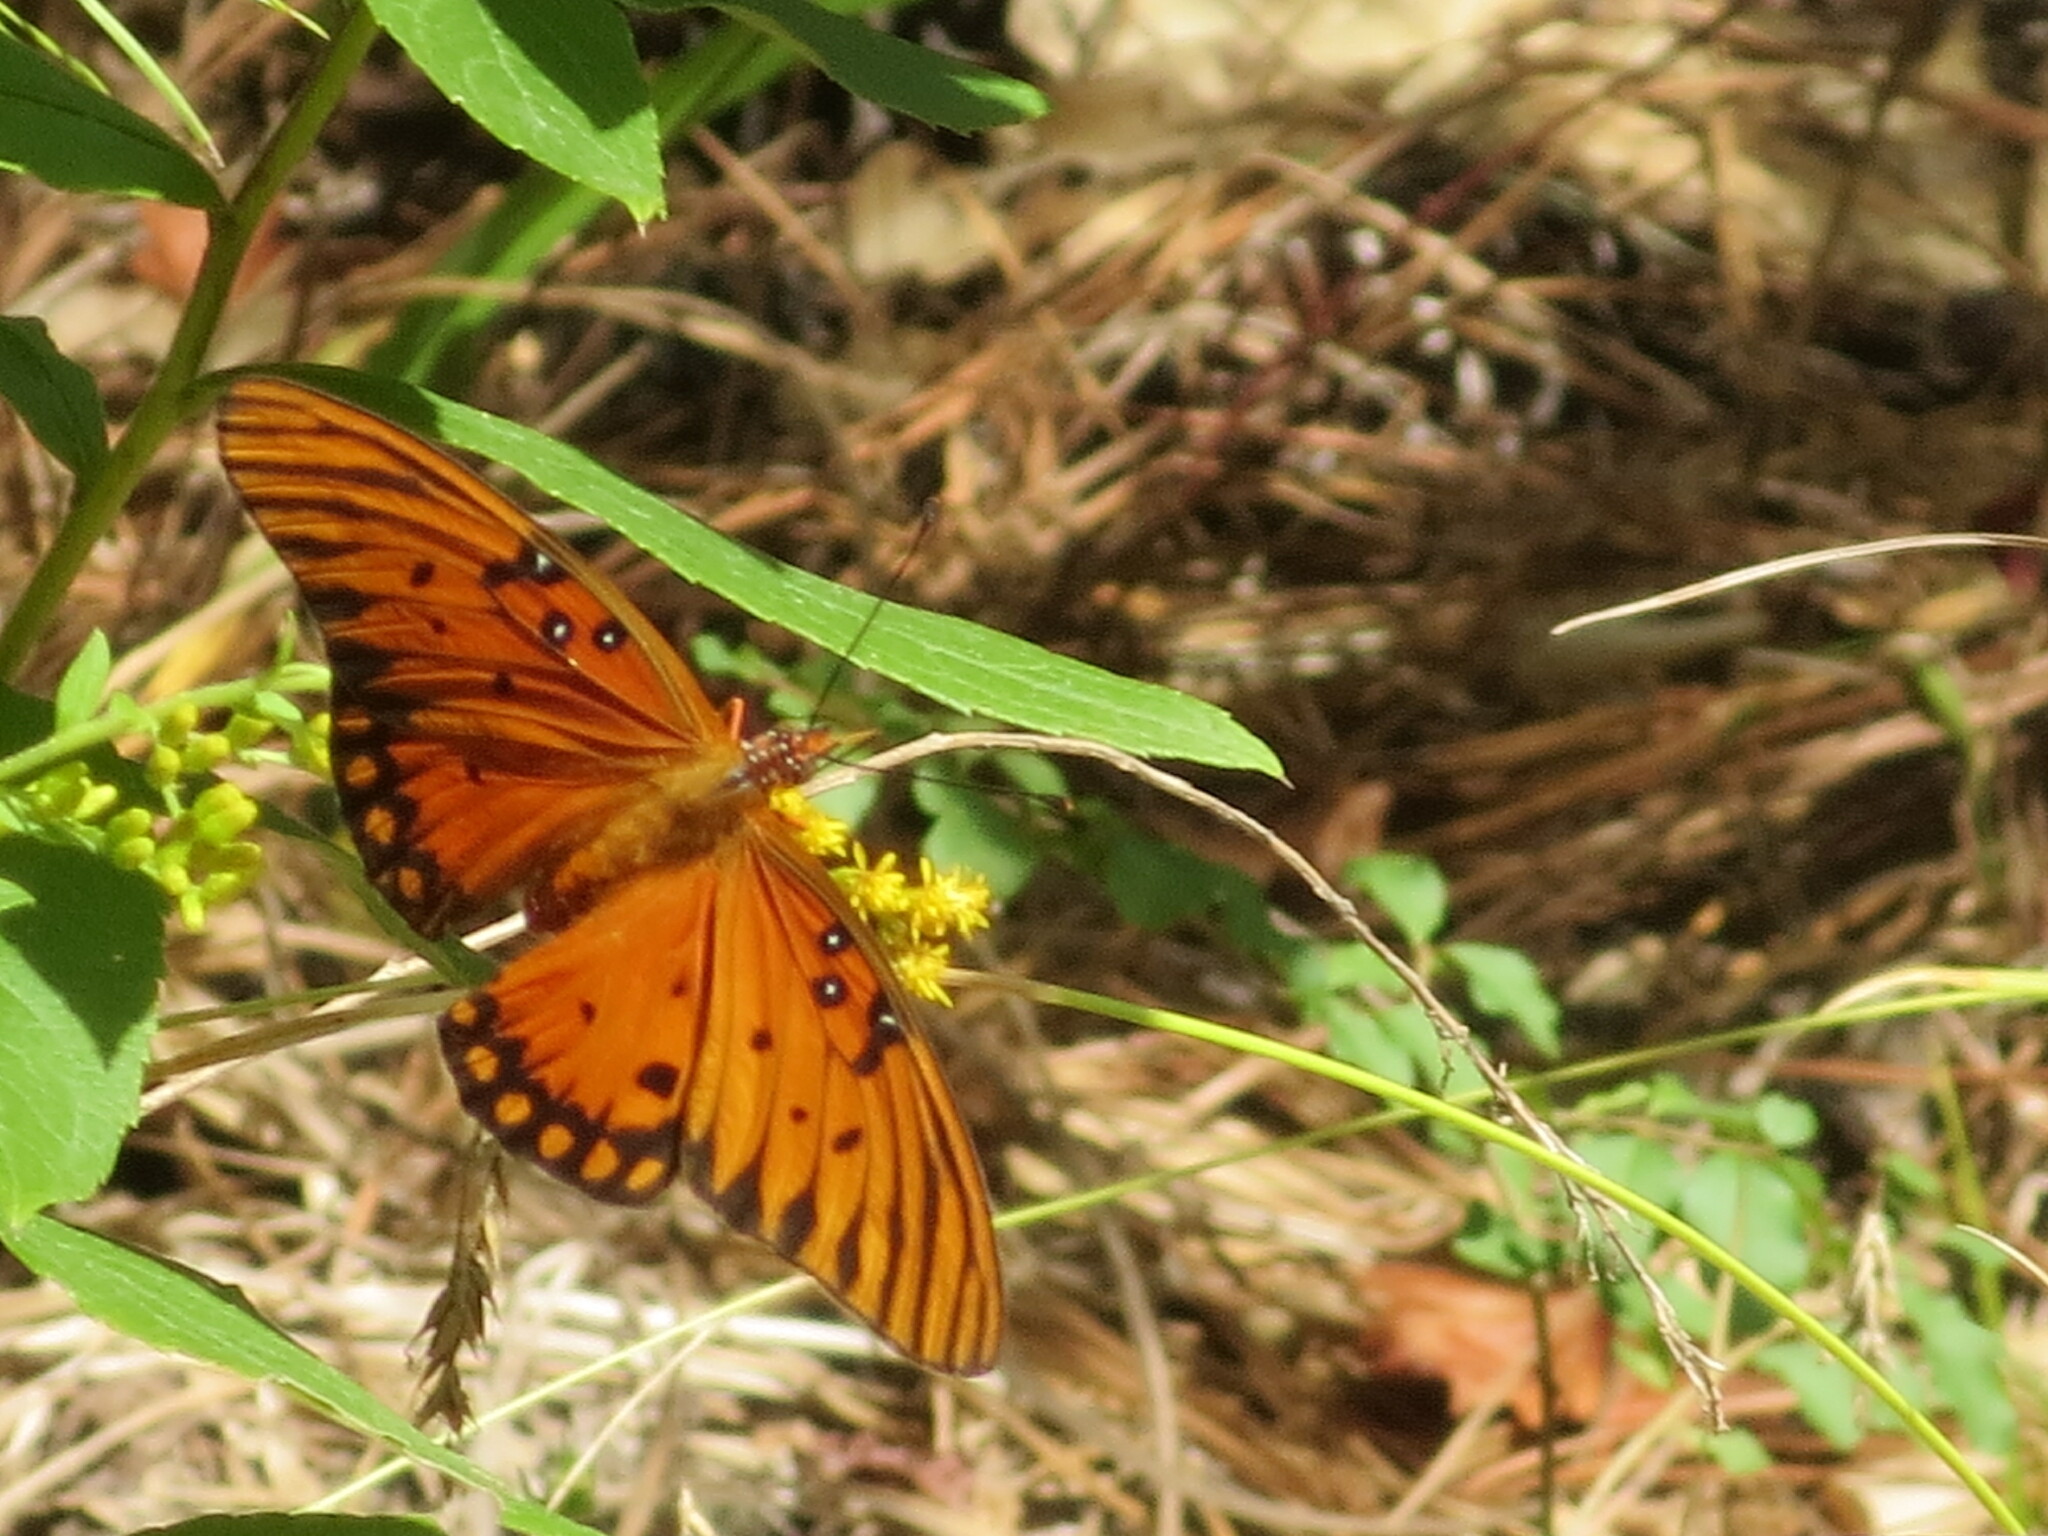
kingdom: Animalia
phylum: Arthropoda
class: Insecta
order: Lepidoptera
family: Nymphalidae
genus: Dione
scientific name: Dione vanillae
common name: Gulf fritillary
